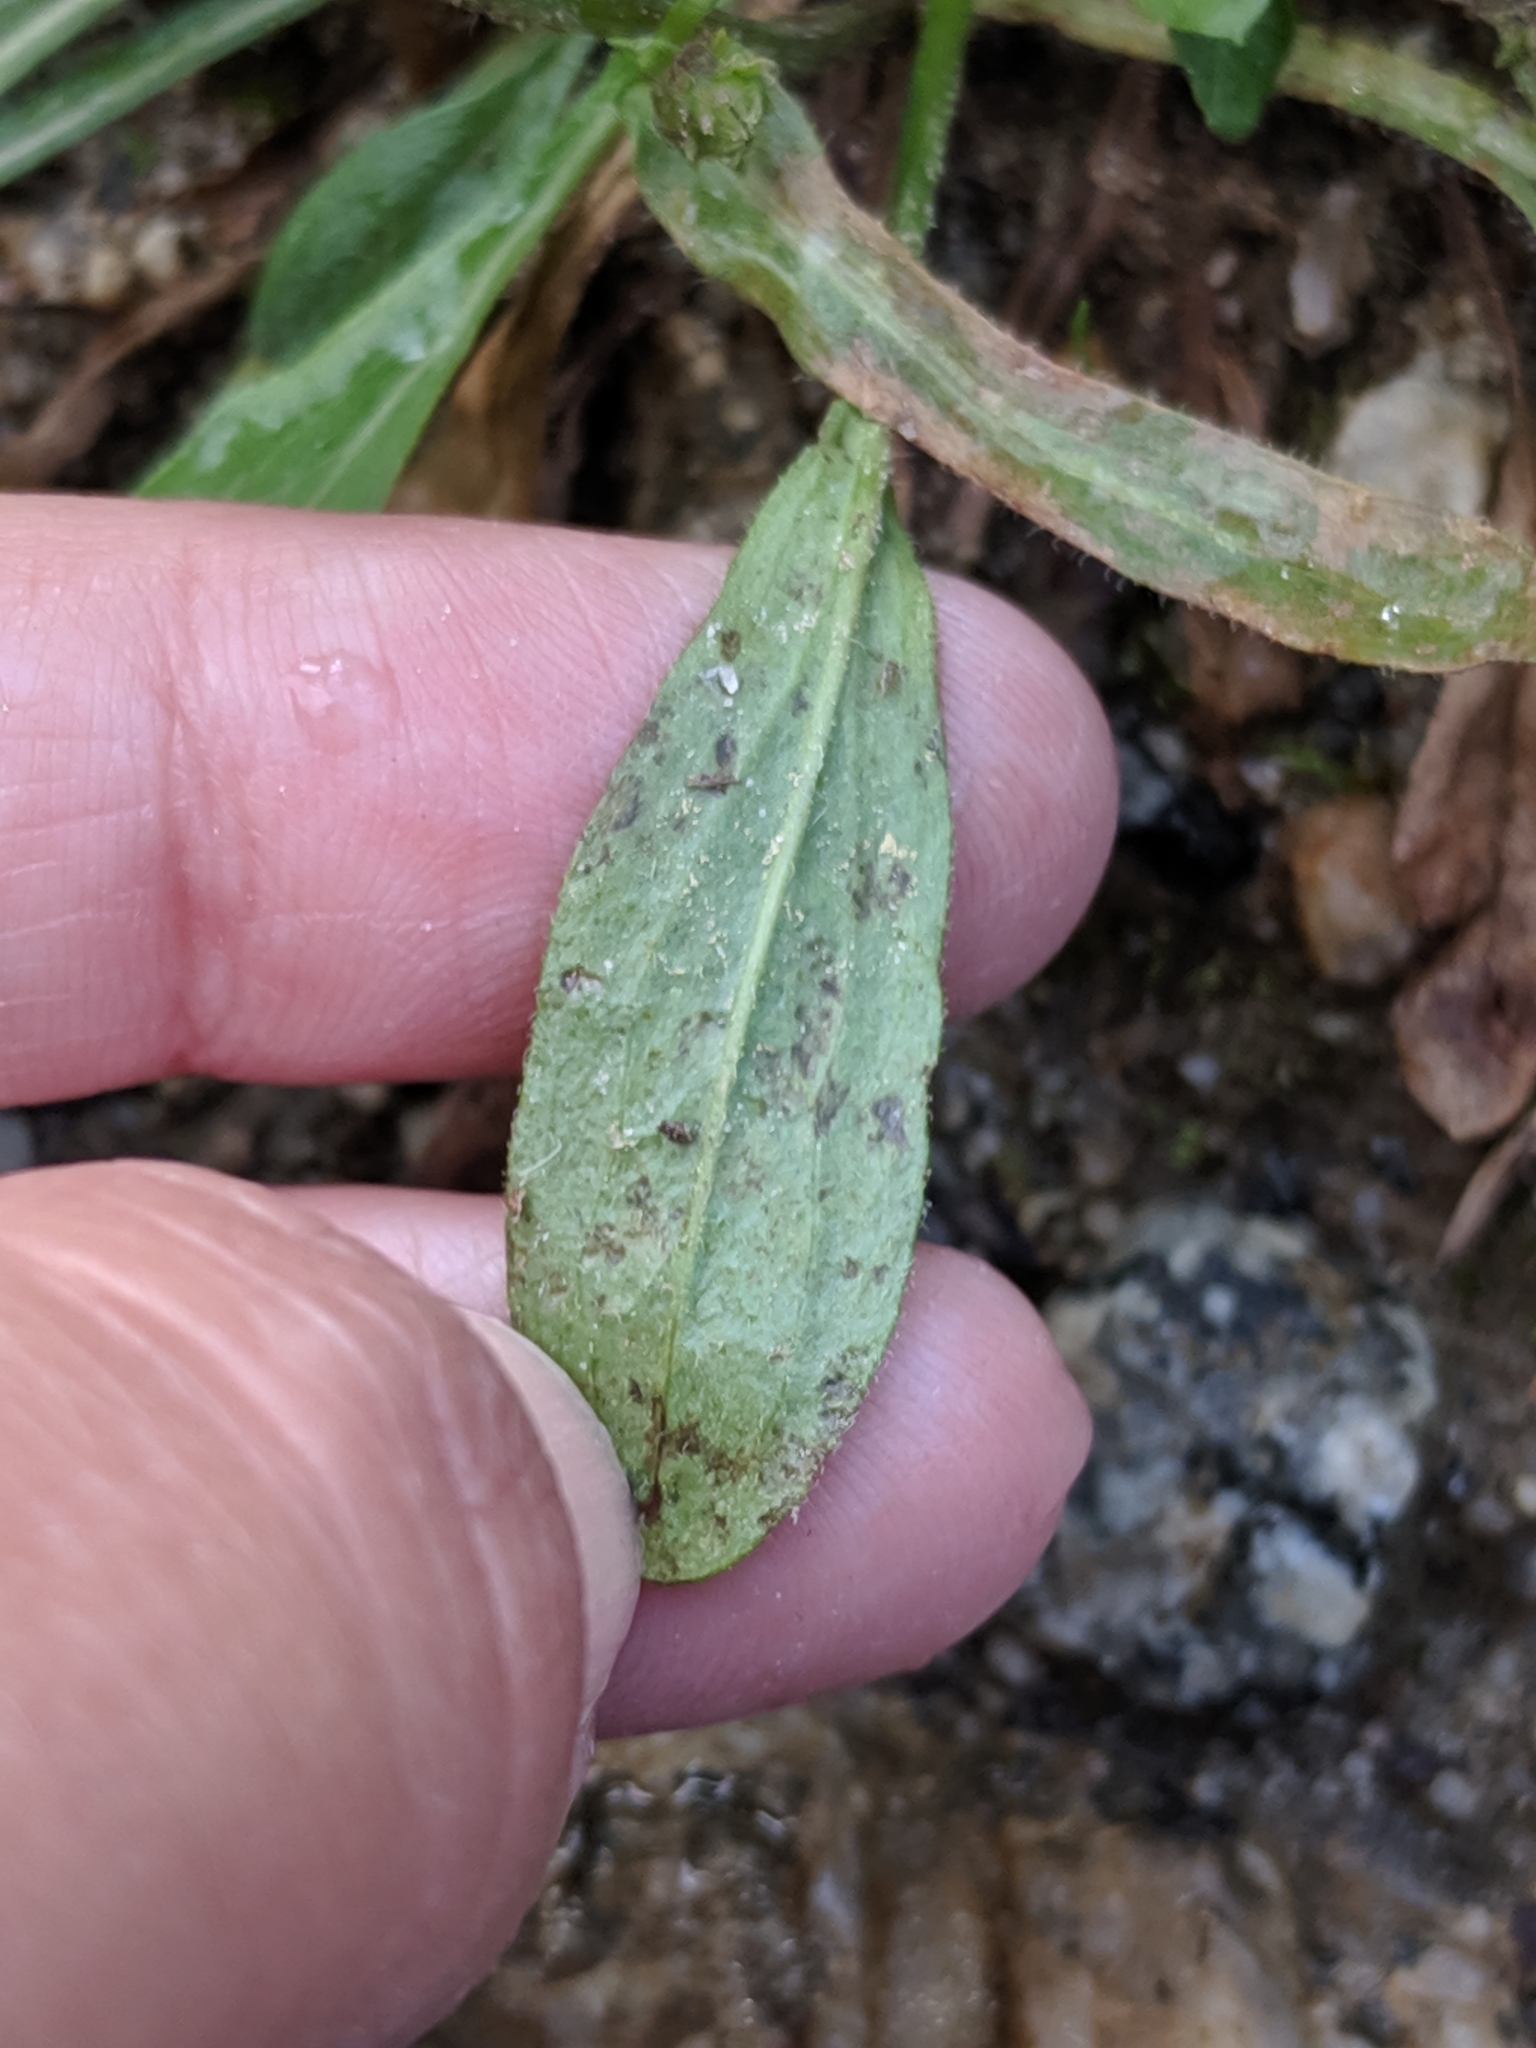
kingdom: Plantae
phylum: Tracheophyta
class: Magnoliopsida
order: Asterales
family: Asteraceae
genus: Erigeron
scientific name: Erigeron nivalis
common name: Snow fleabane
